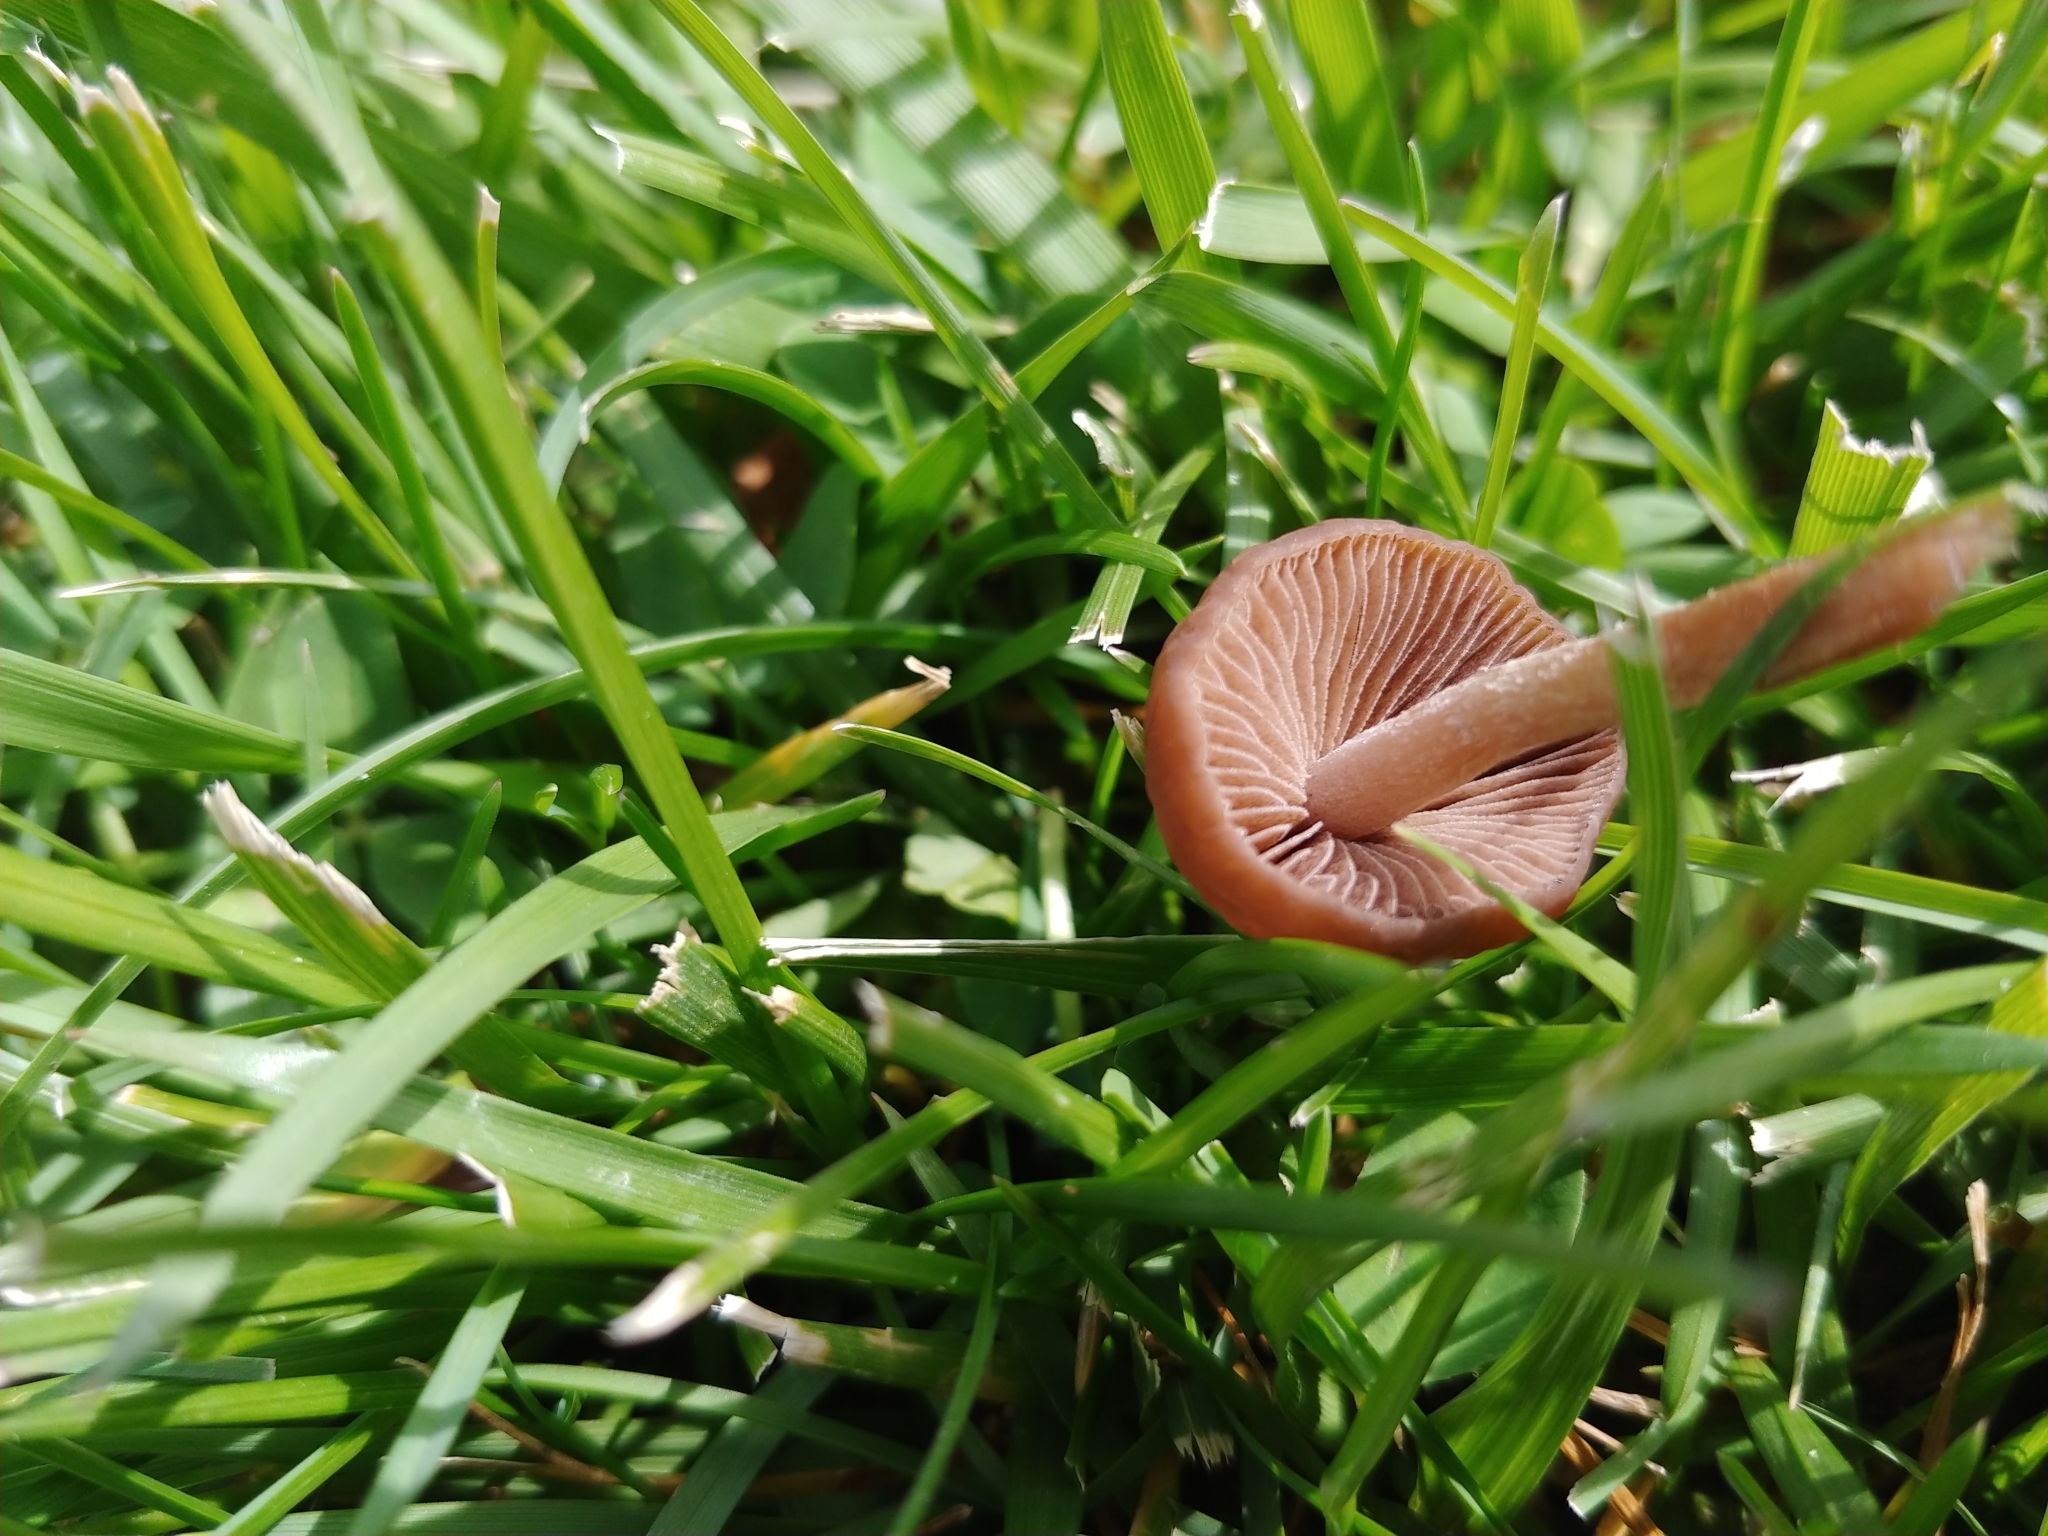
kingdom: Fungi
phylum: Basidiomycota
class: Agaricomycetes
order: Agaricales
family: Bolbitiaceae
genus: Panaeolina
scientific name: Panaeolina foenisecii
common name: Brown hay cap
